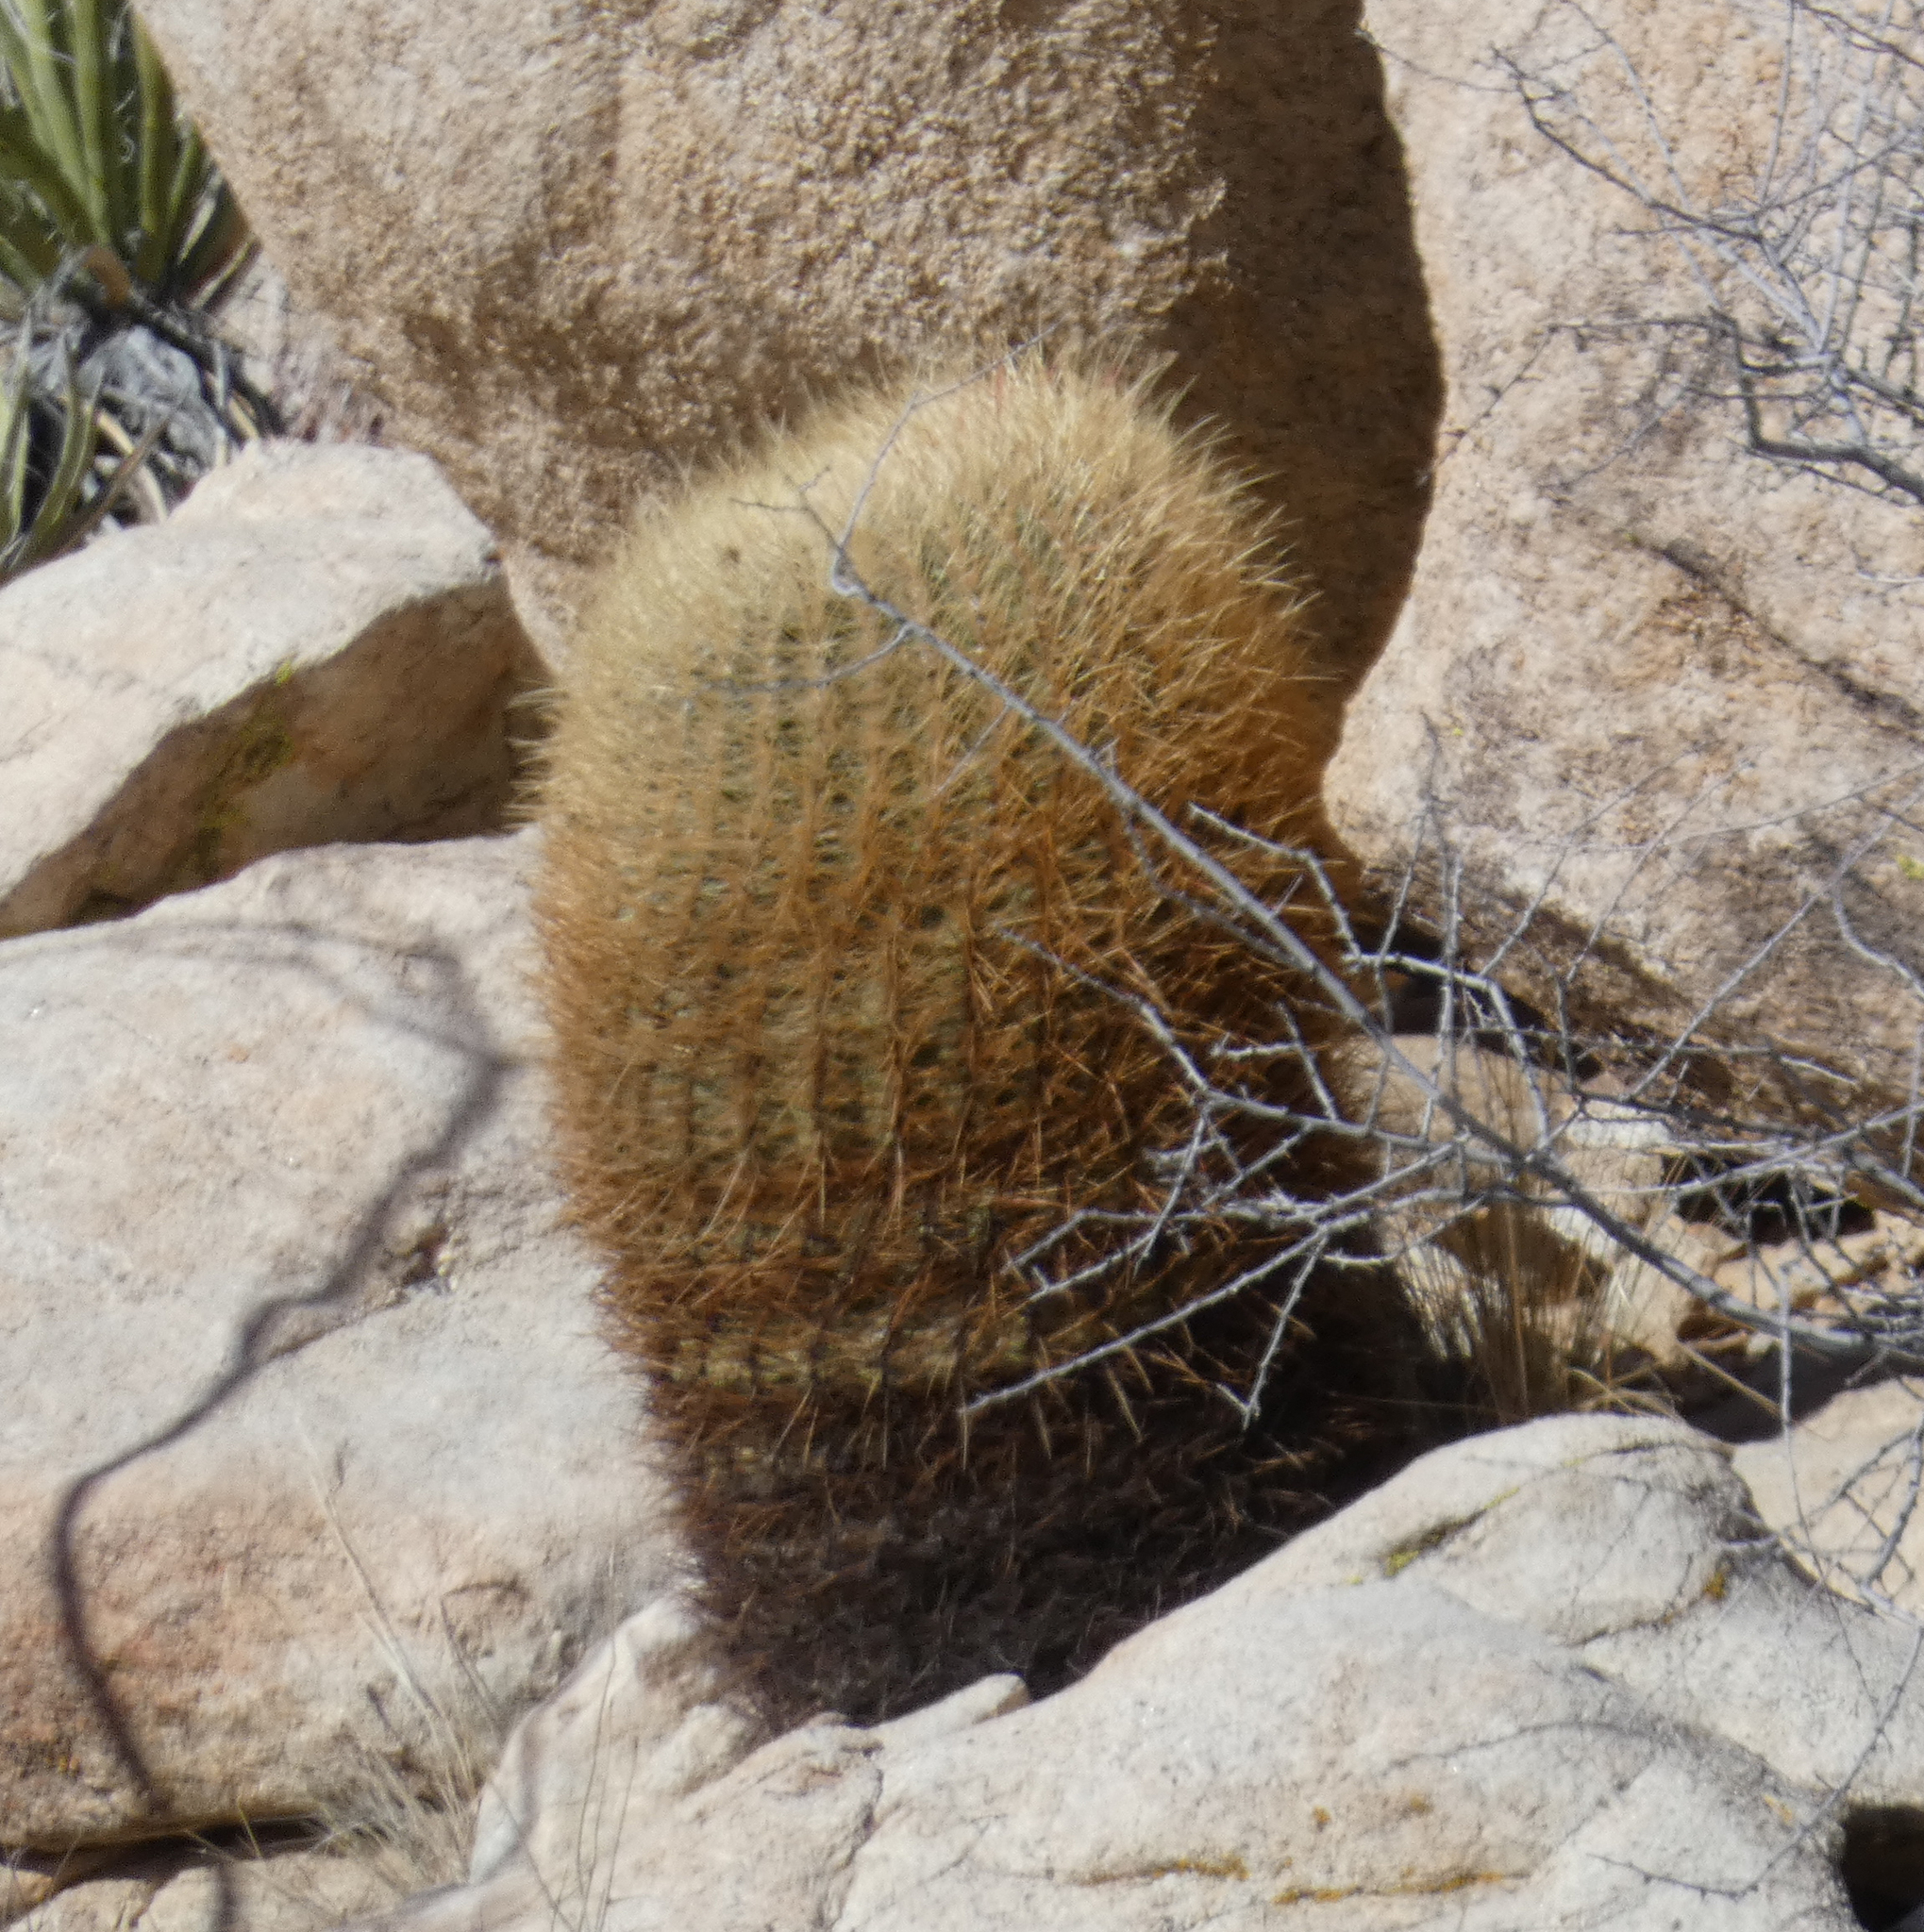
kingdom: Plantae
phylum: Tracheophyta
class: Magnoliopsida
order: Caryophyllales
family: Cactaceae
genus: Ferocactus
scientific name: Ferocactus cylindraceus
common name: California barrel cactus
